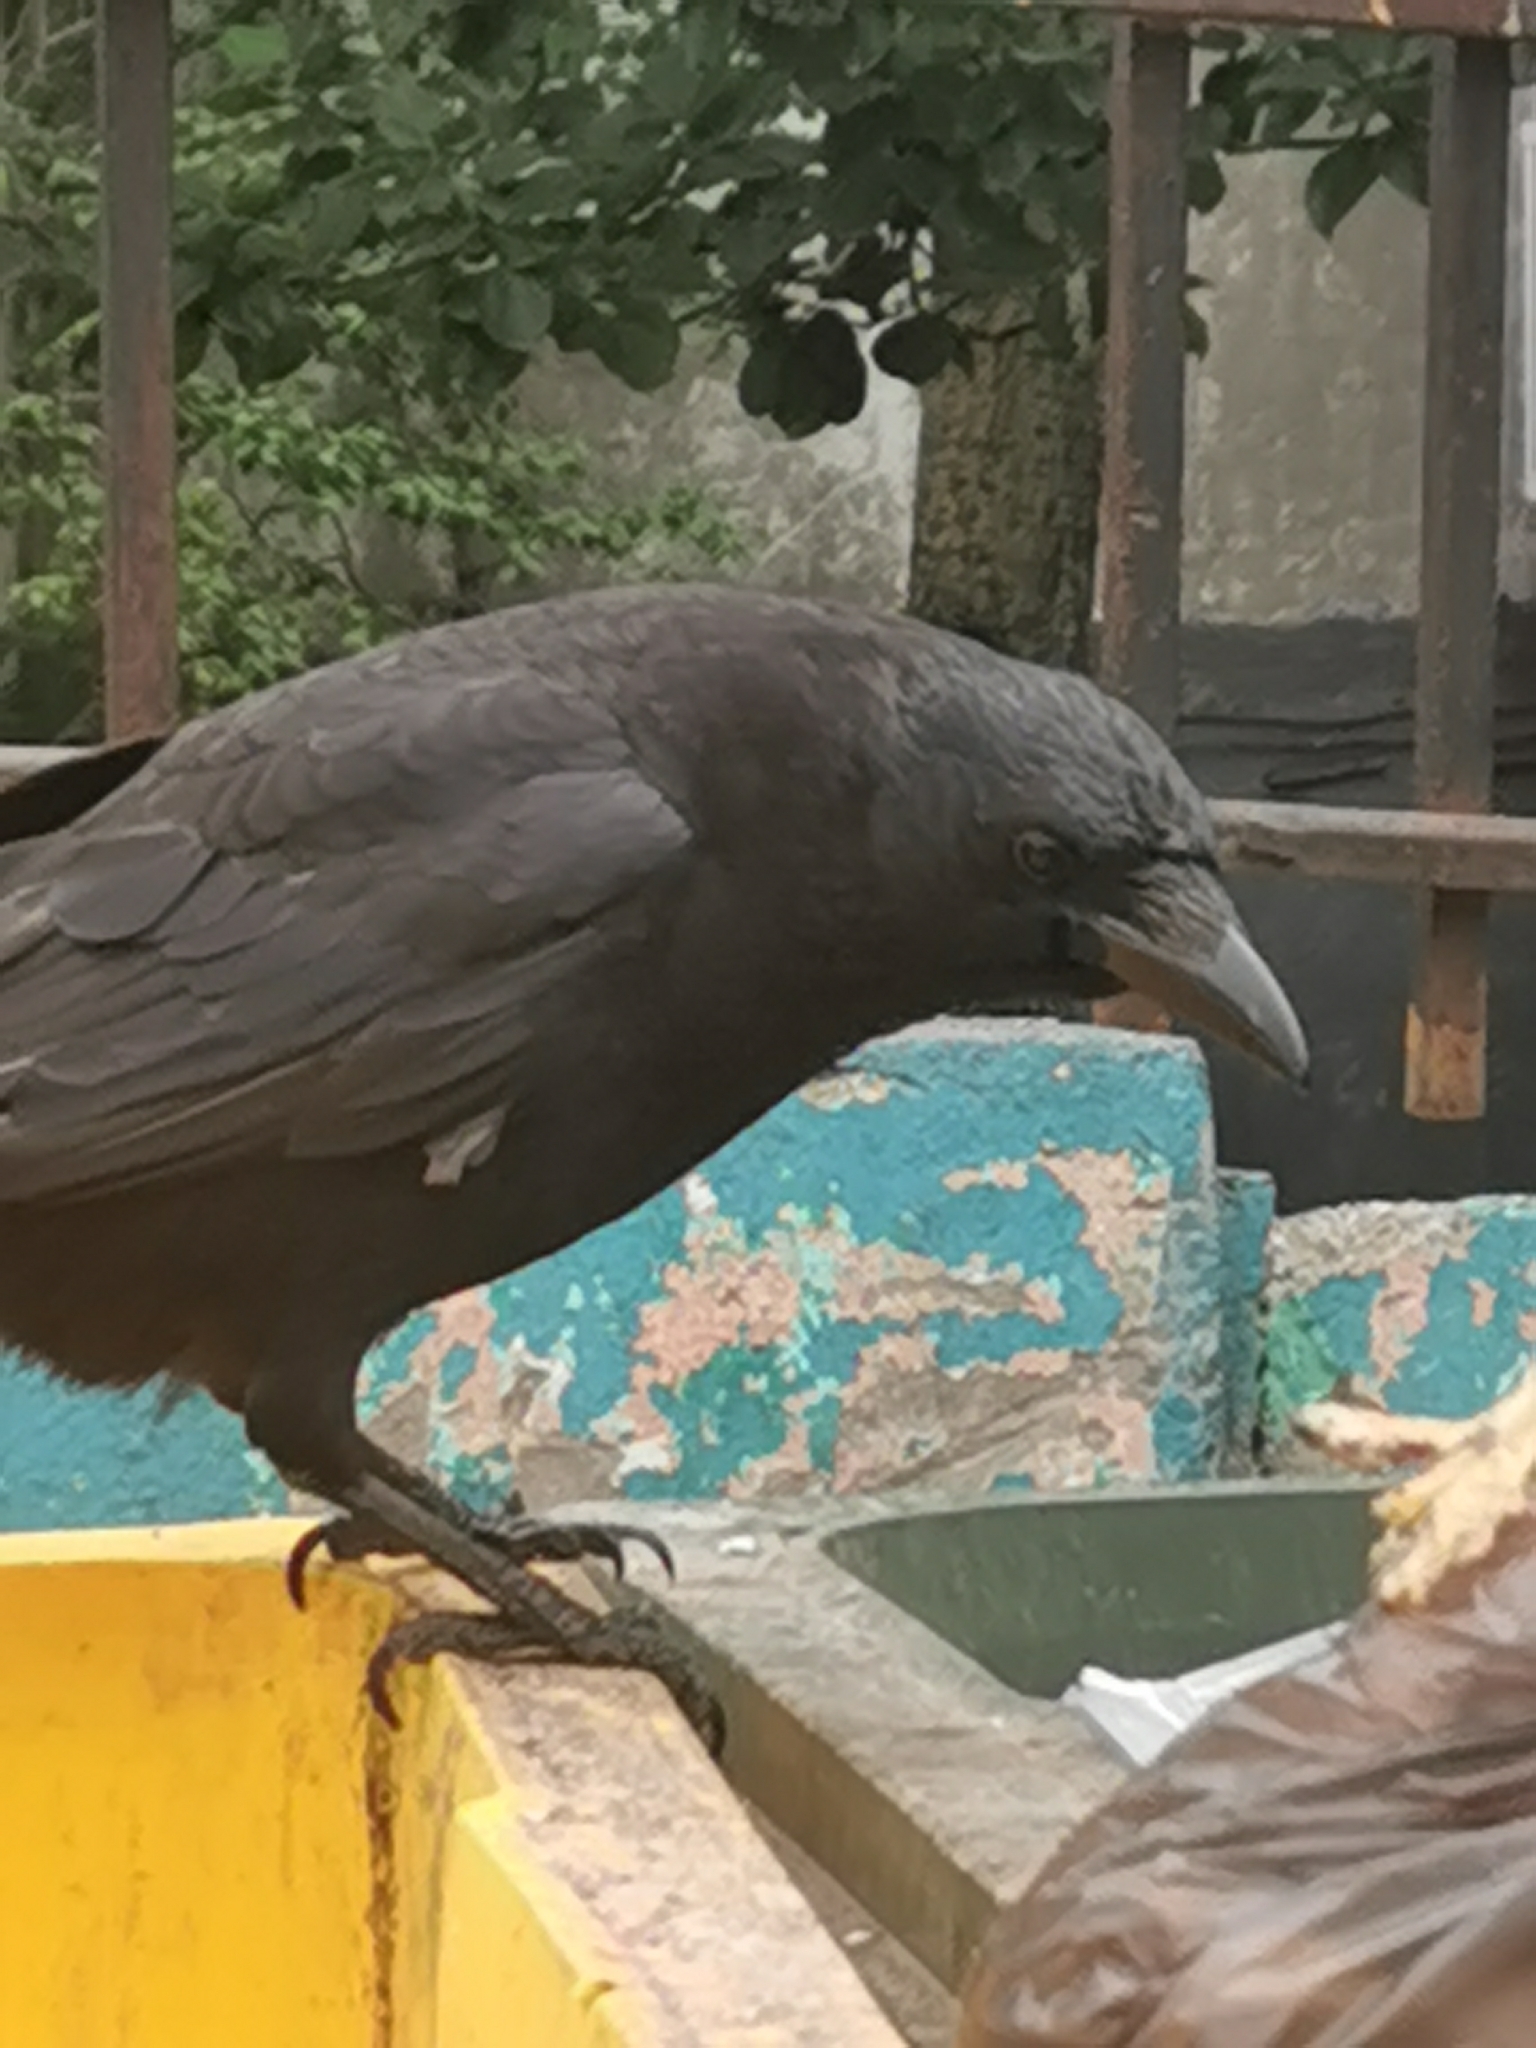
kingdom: Animalia
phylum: Chordata
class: Aves
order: Passeriformes
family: Corvidae
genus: Corvus
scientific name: Corvus corone
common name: Carrion crow
